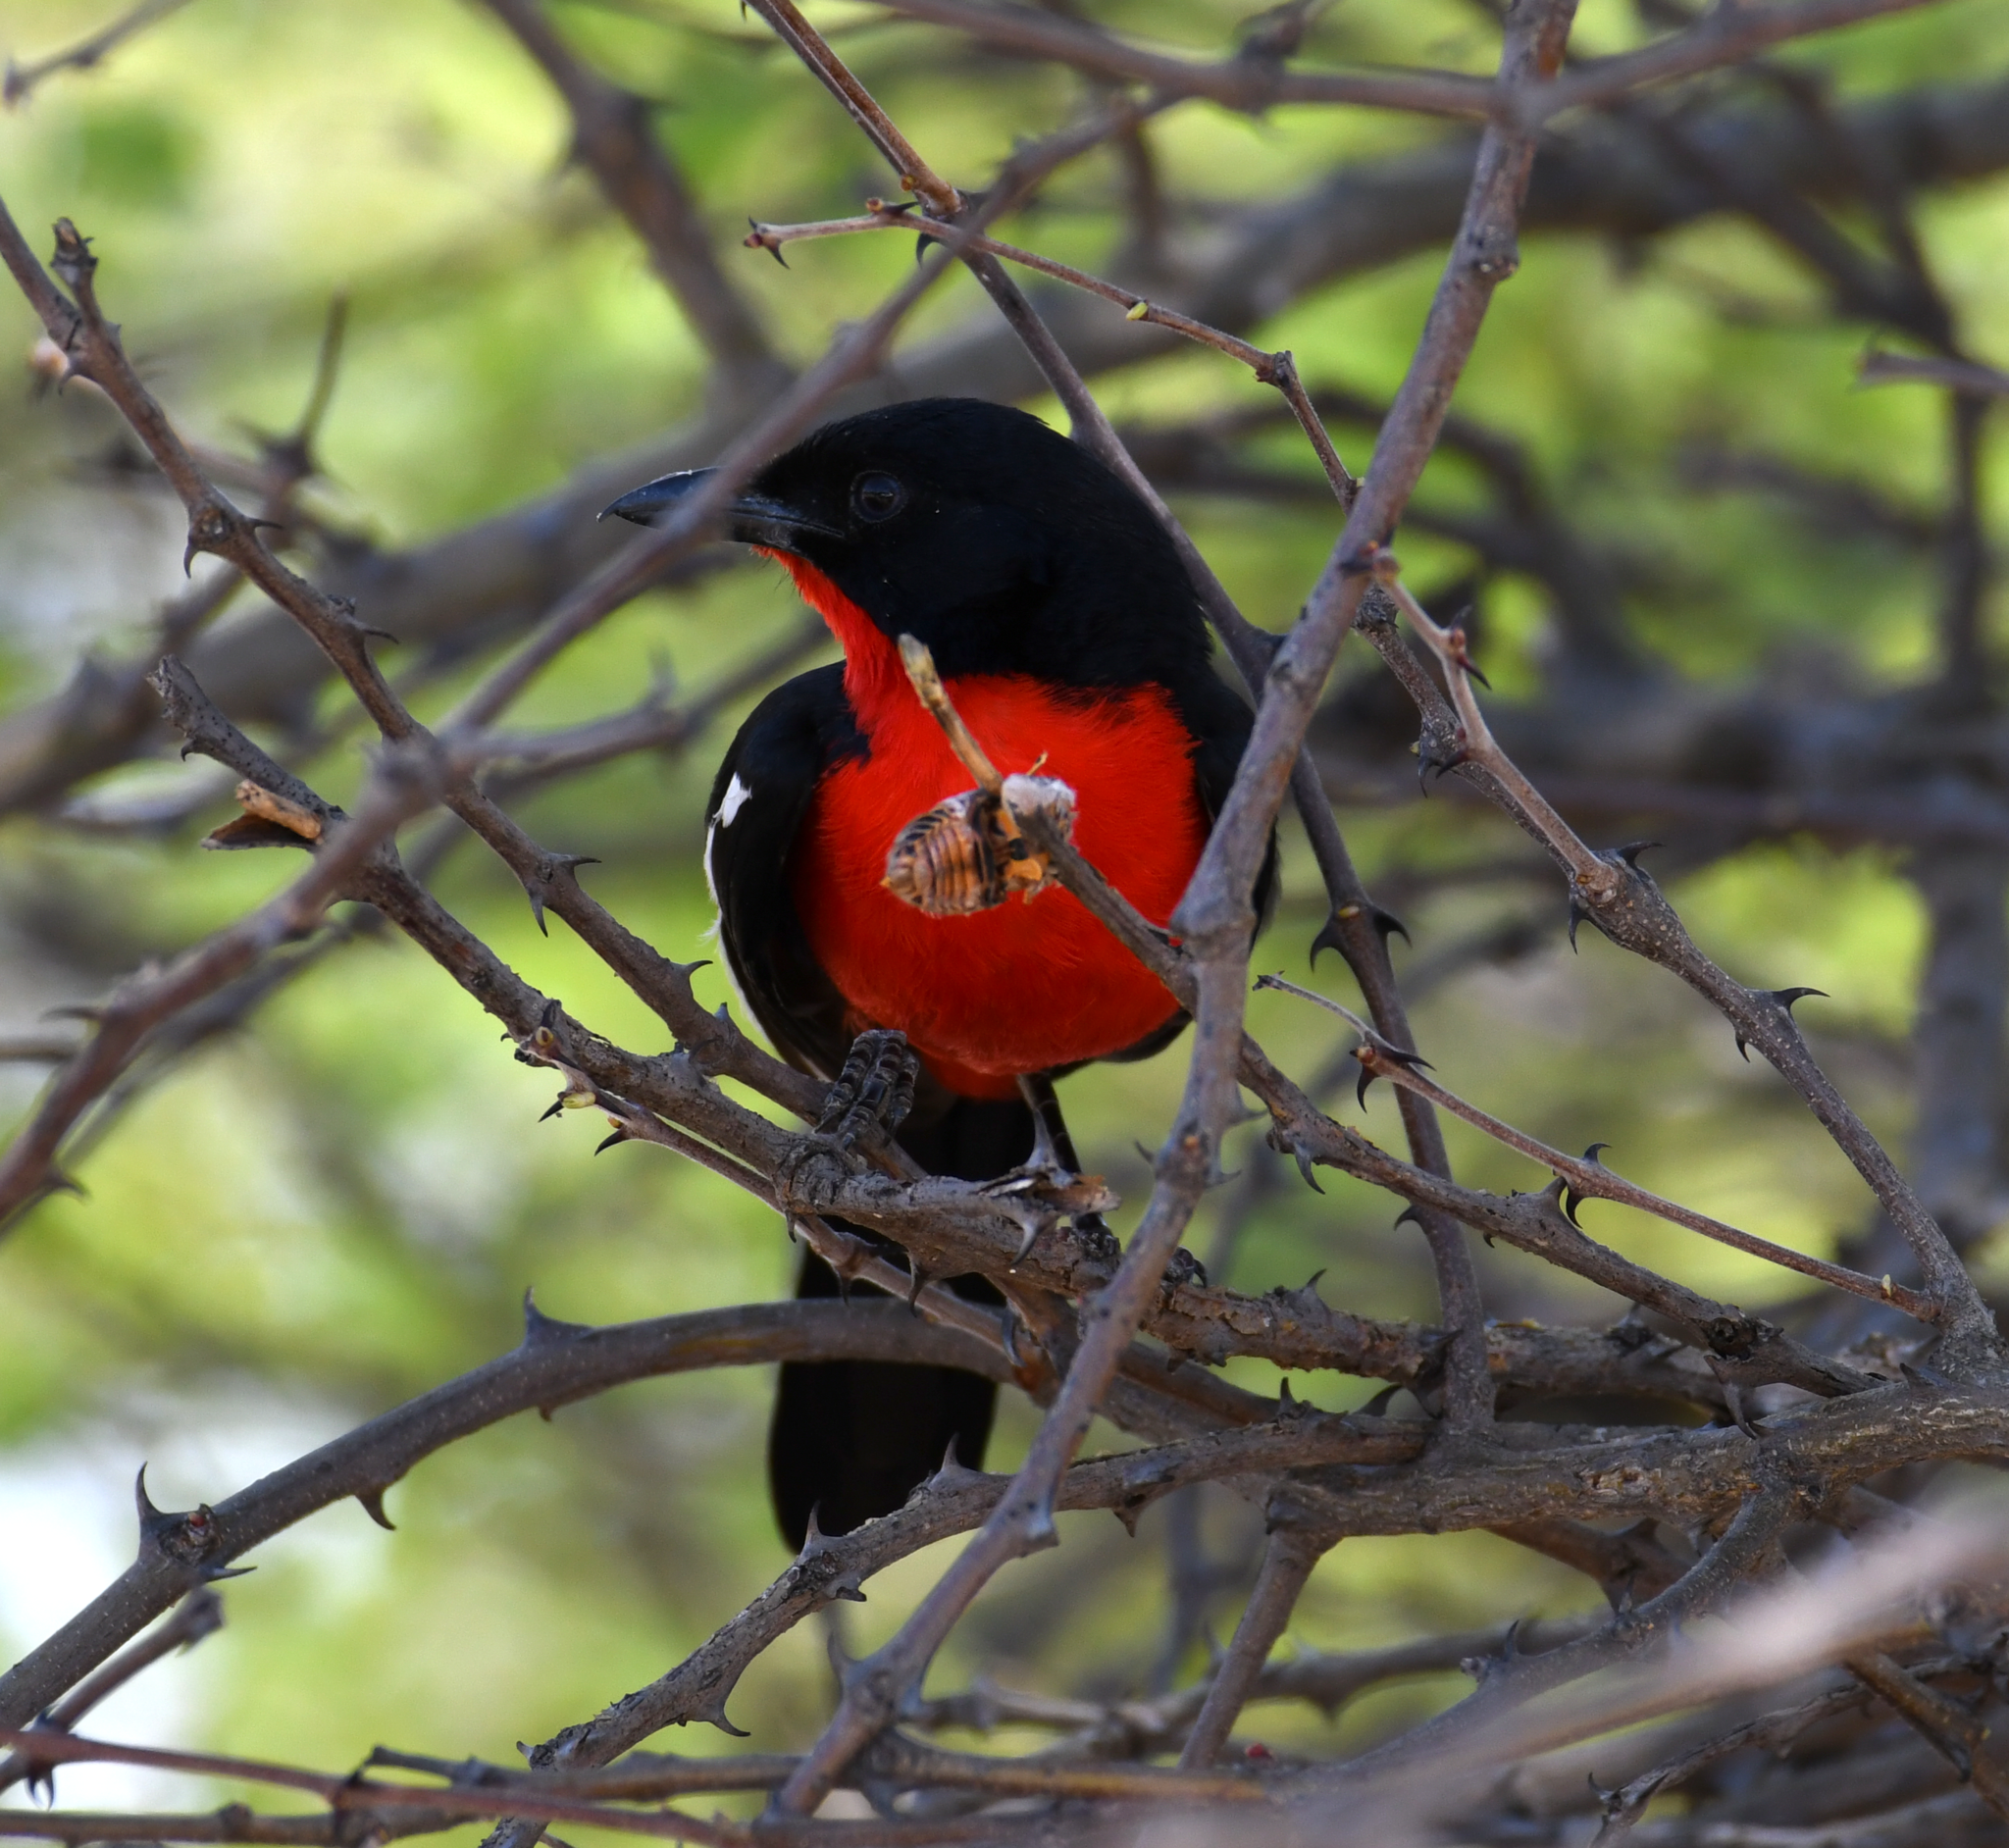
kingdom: Animalia
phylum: Chordata
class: Aves
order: Passeriformes
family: Malaconotidae
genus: Laniarius
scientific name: Laniarius atrococcineus
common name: Crimson-breasted shrike
